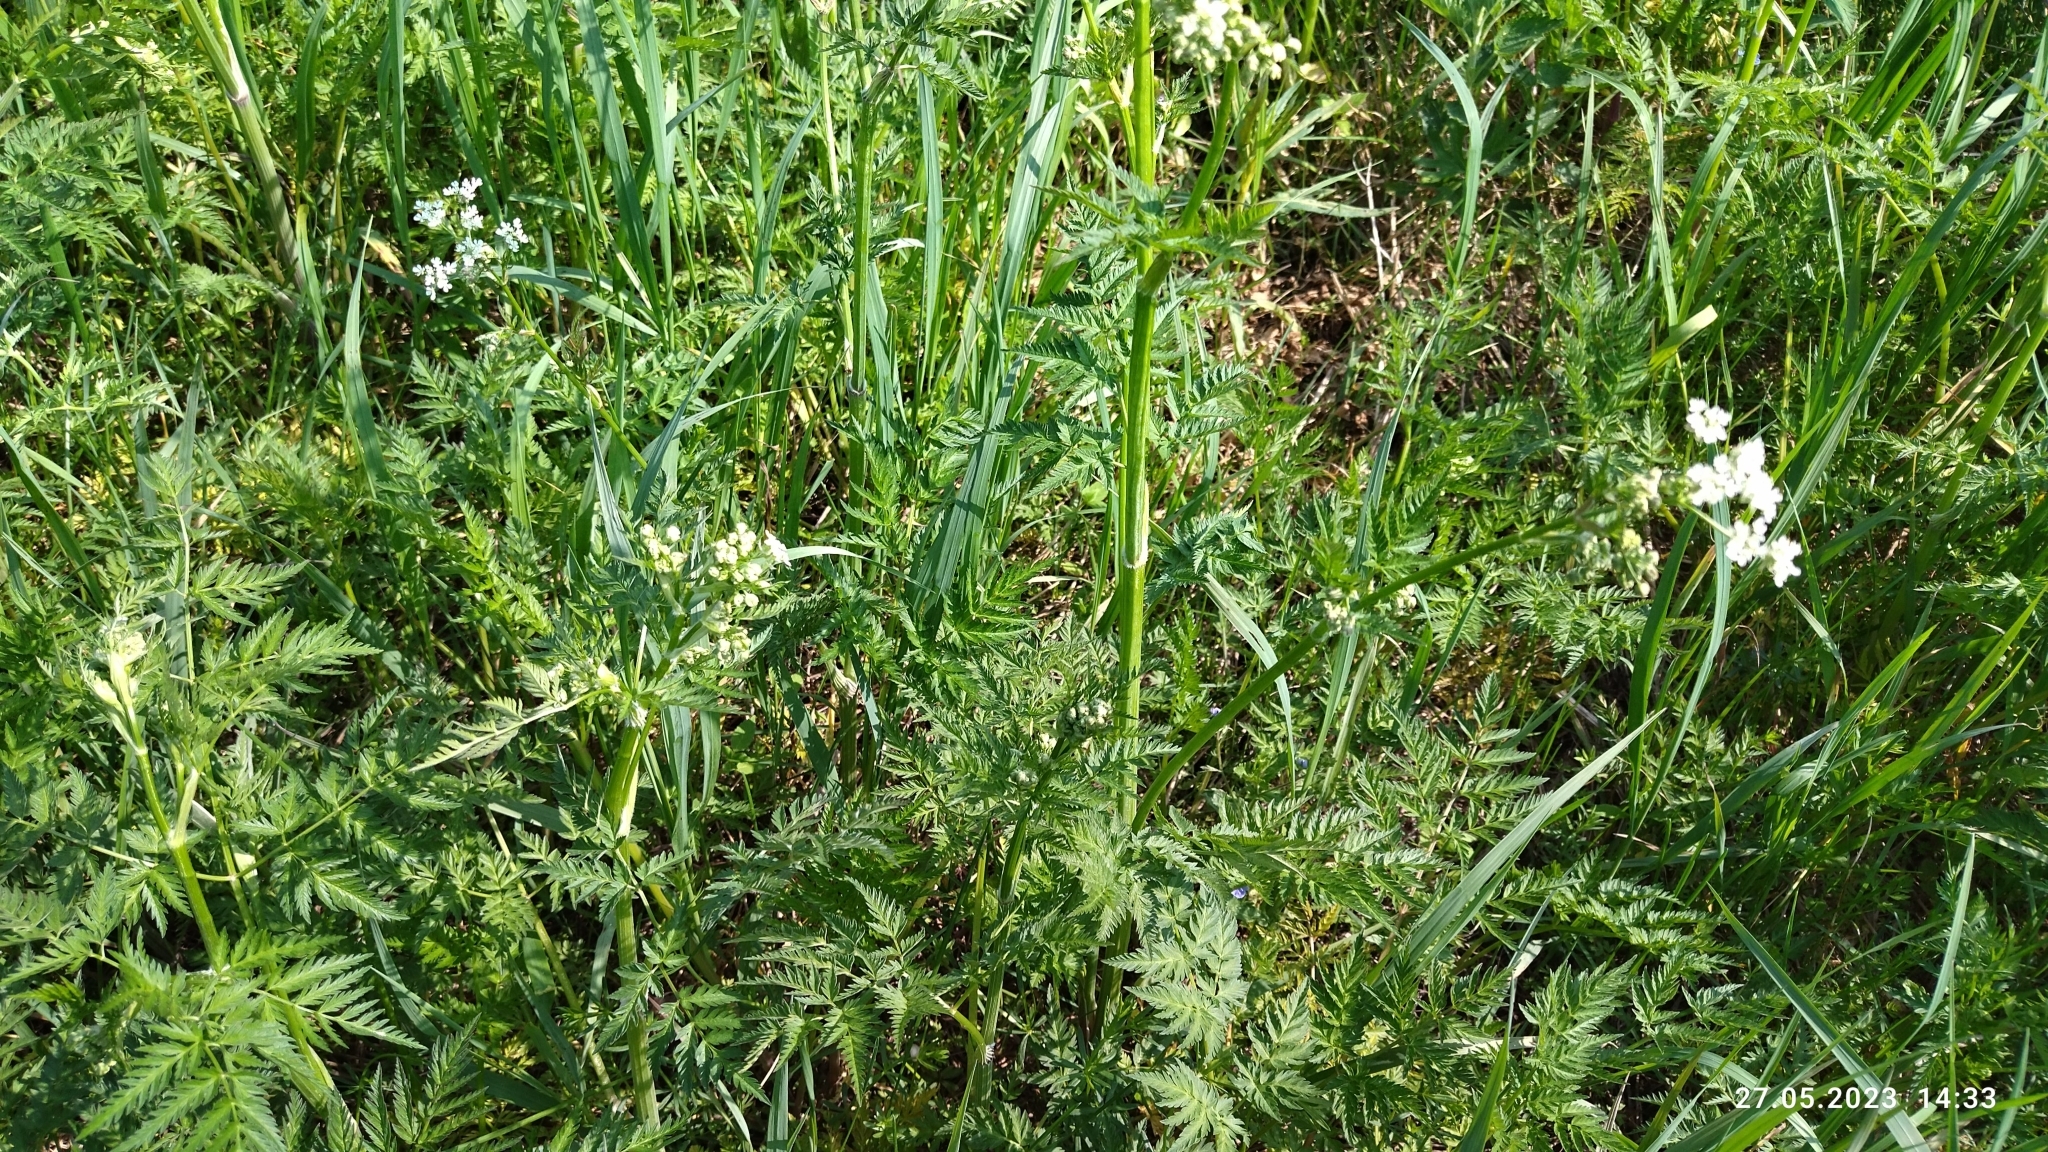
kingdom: Plantae
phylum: Tracheophyta
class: Magnoliopsida
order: Apiales
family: Apiaceae
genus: Anthriscus
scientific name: Anthriscus sylvestris
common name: Cow parsley
